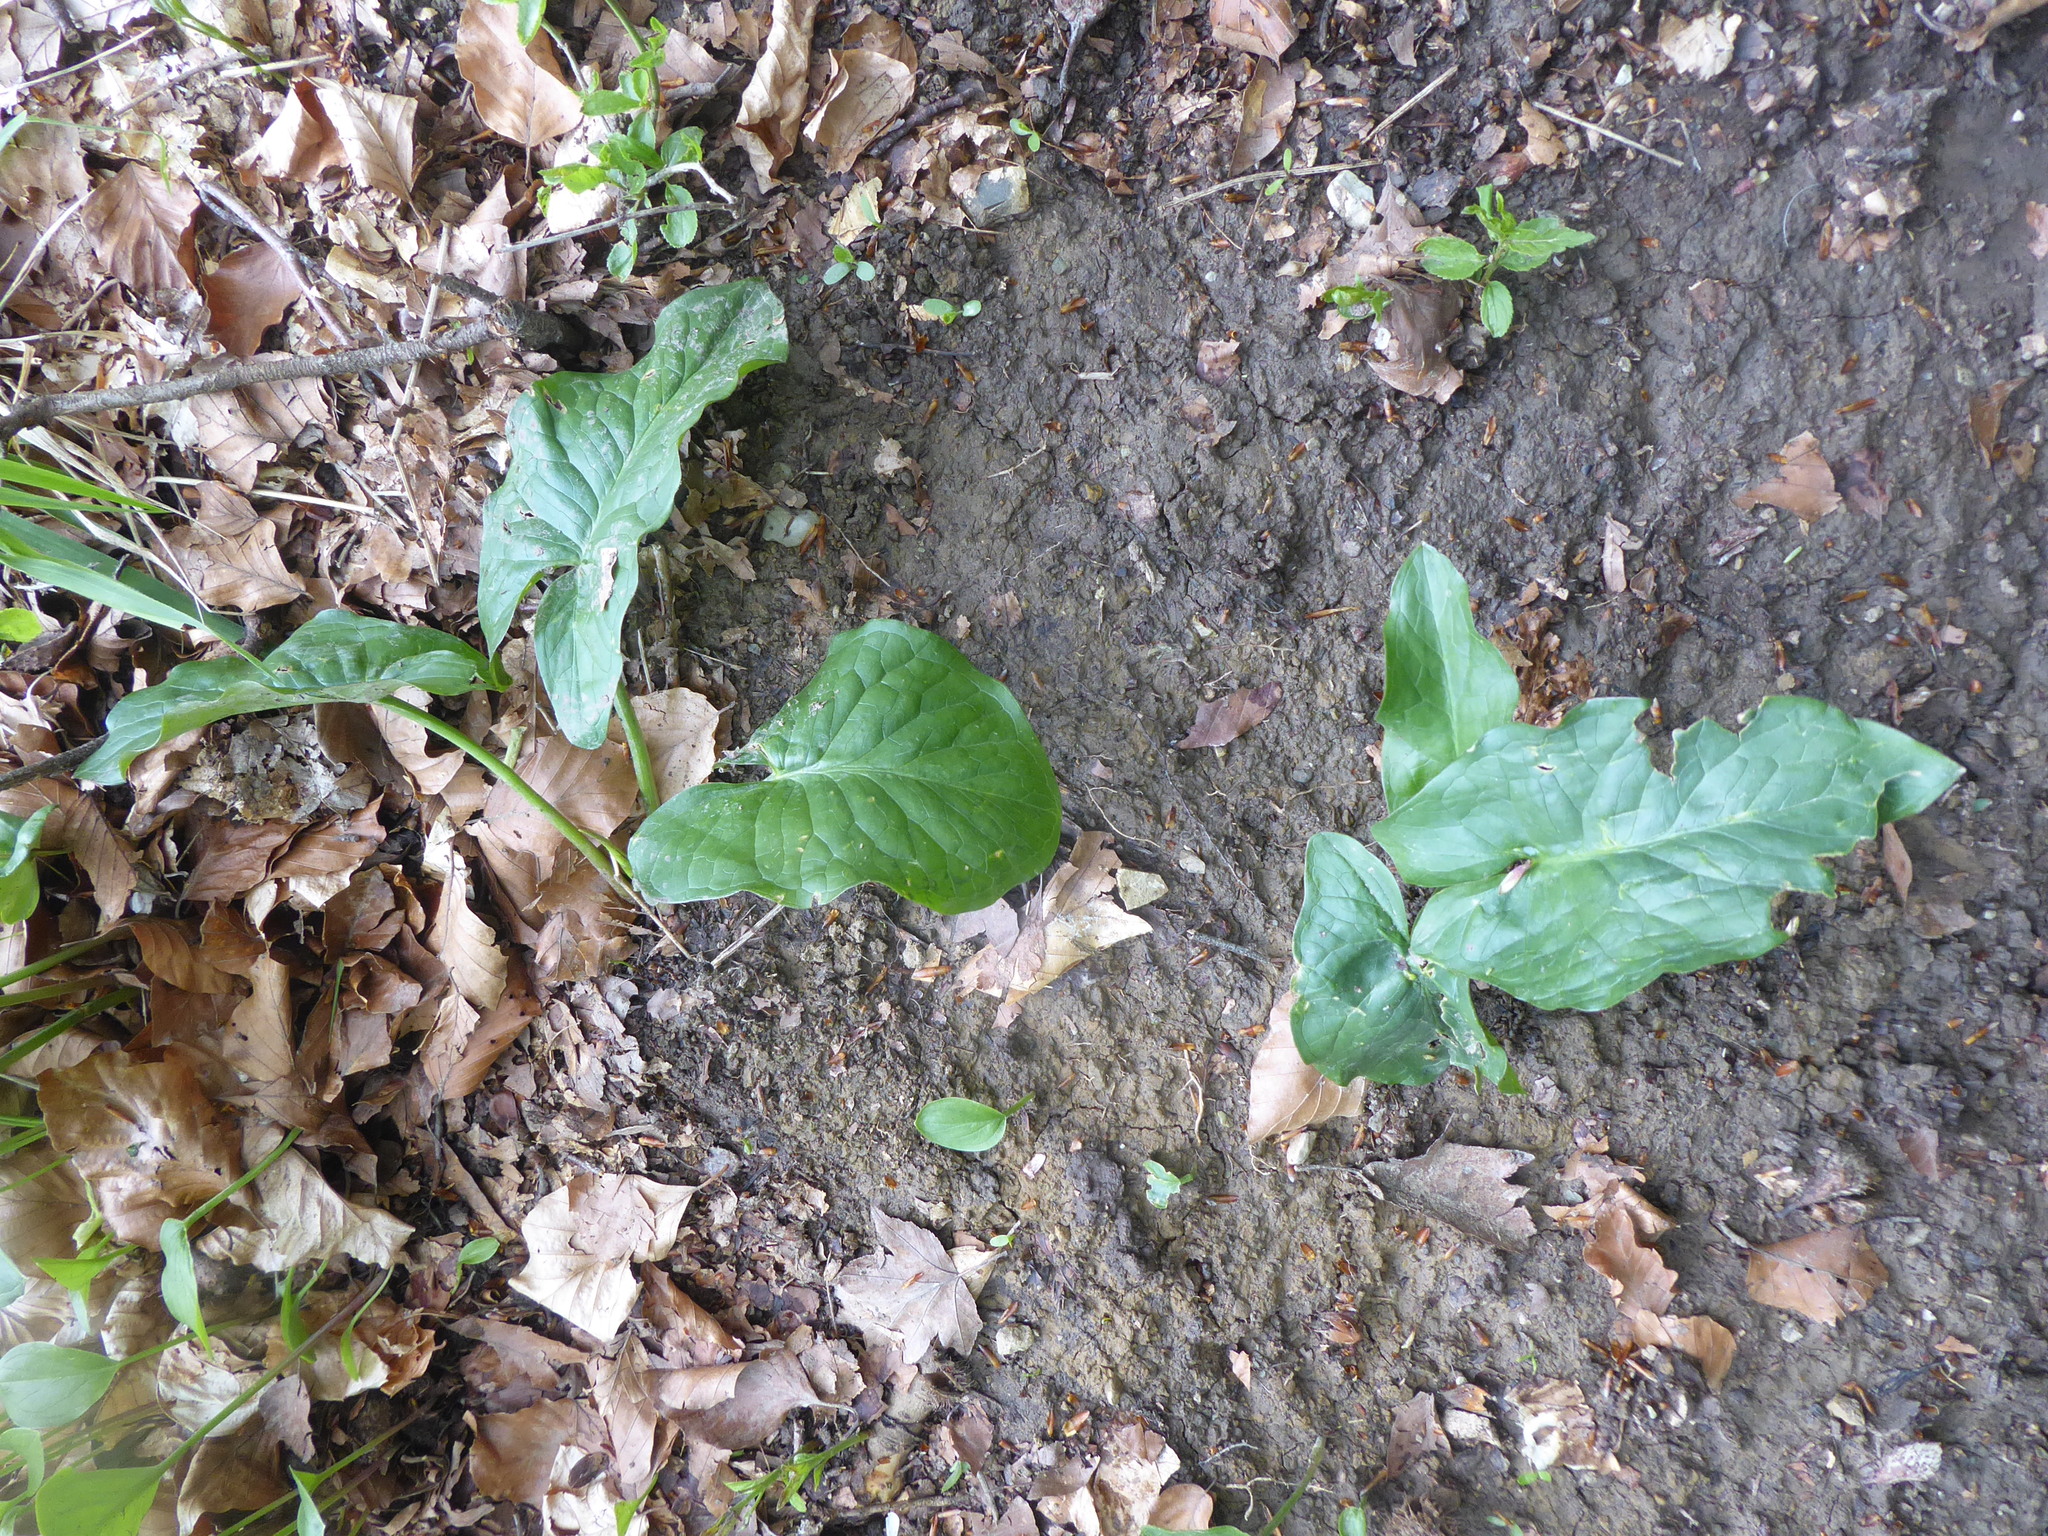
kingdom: Plantae
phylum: Tracheophyta
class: Liliopsida
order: Alismatales
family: Araceae
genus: Arum
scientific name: Arum cylindraceum
